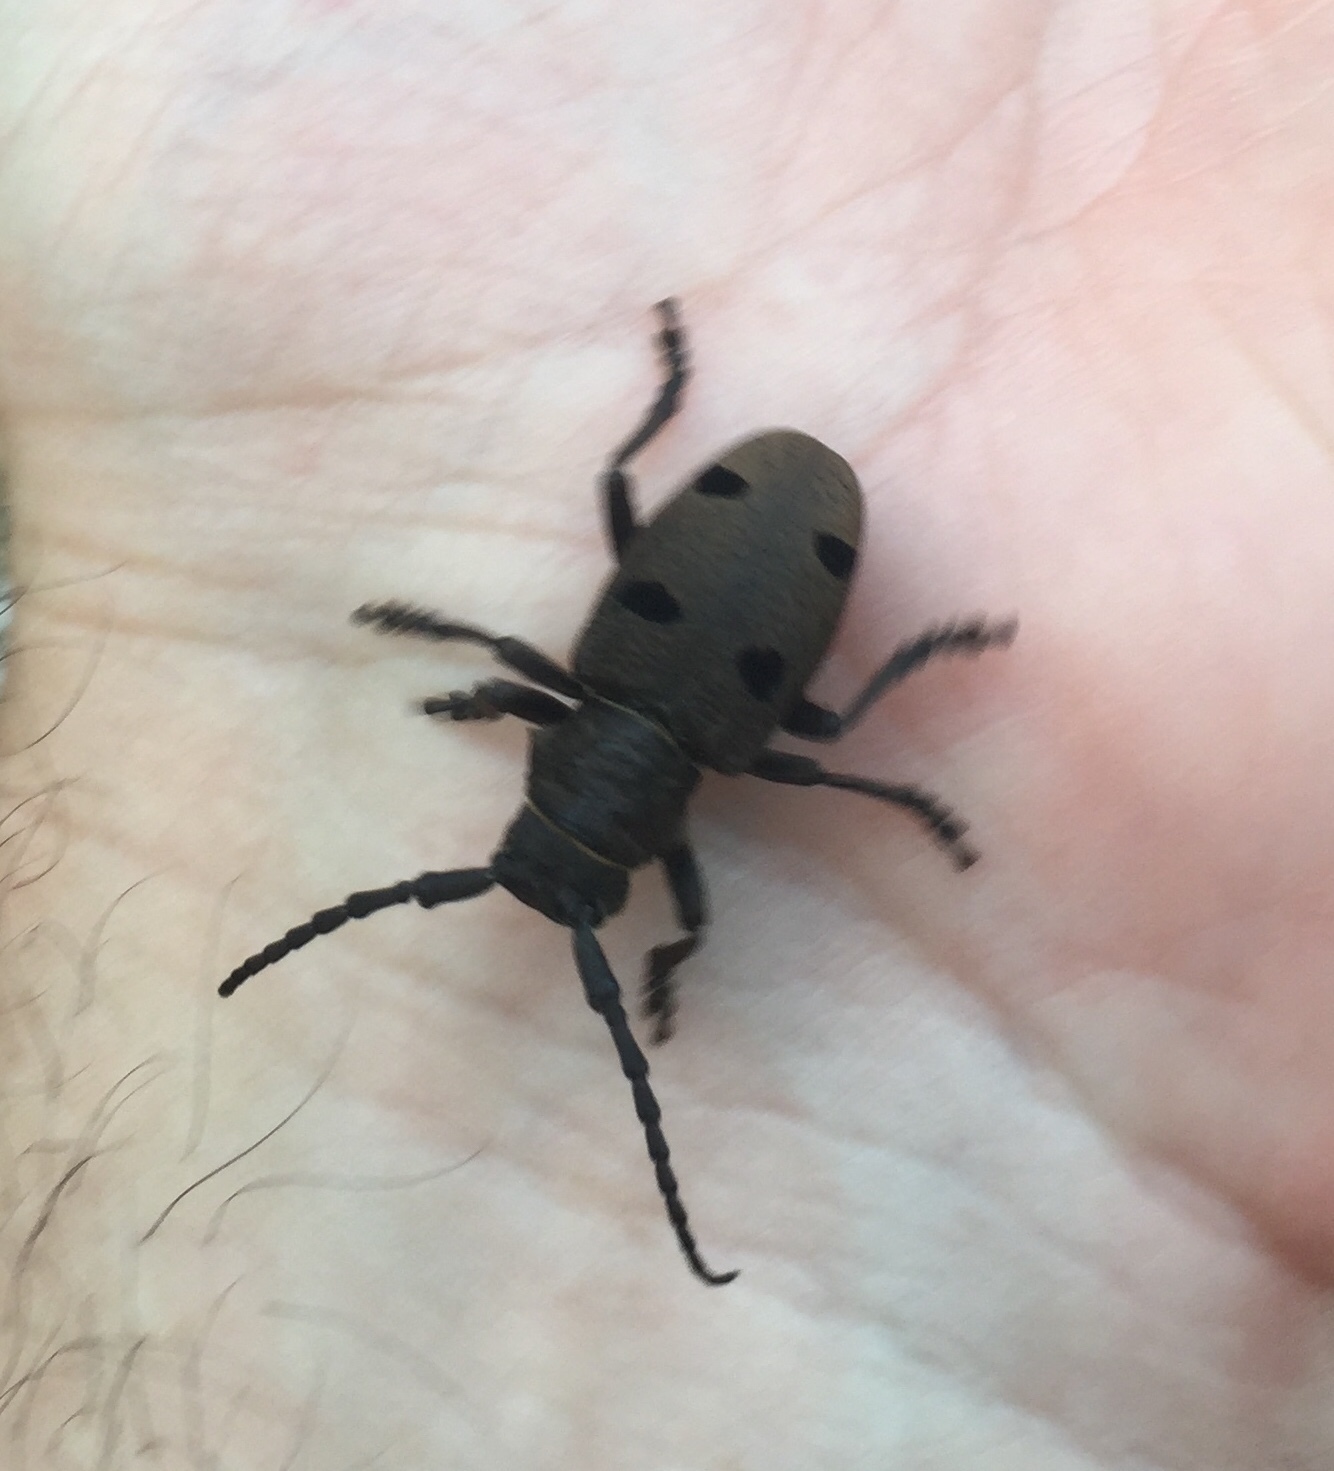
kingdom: Animalia
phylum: Arthropoda
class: Insecta
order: Coleoptera
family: Cerambycidae
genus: Herophila
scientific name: Herophila tristis
